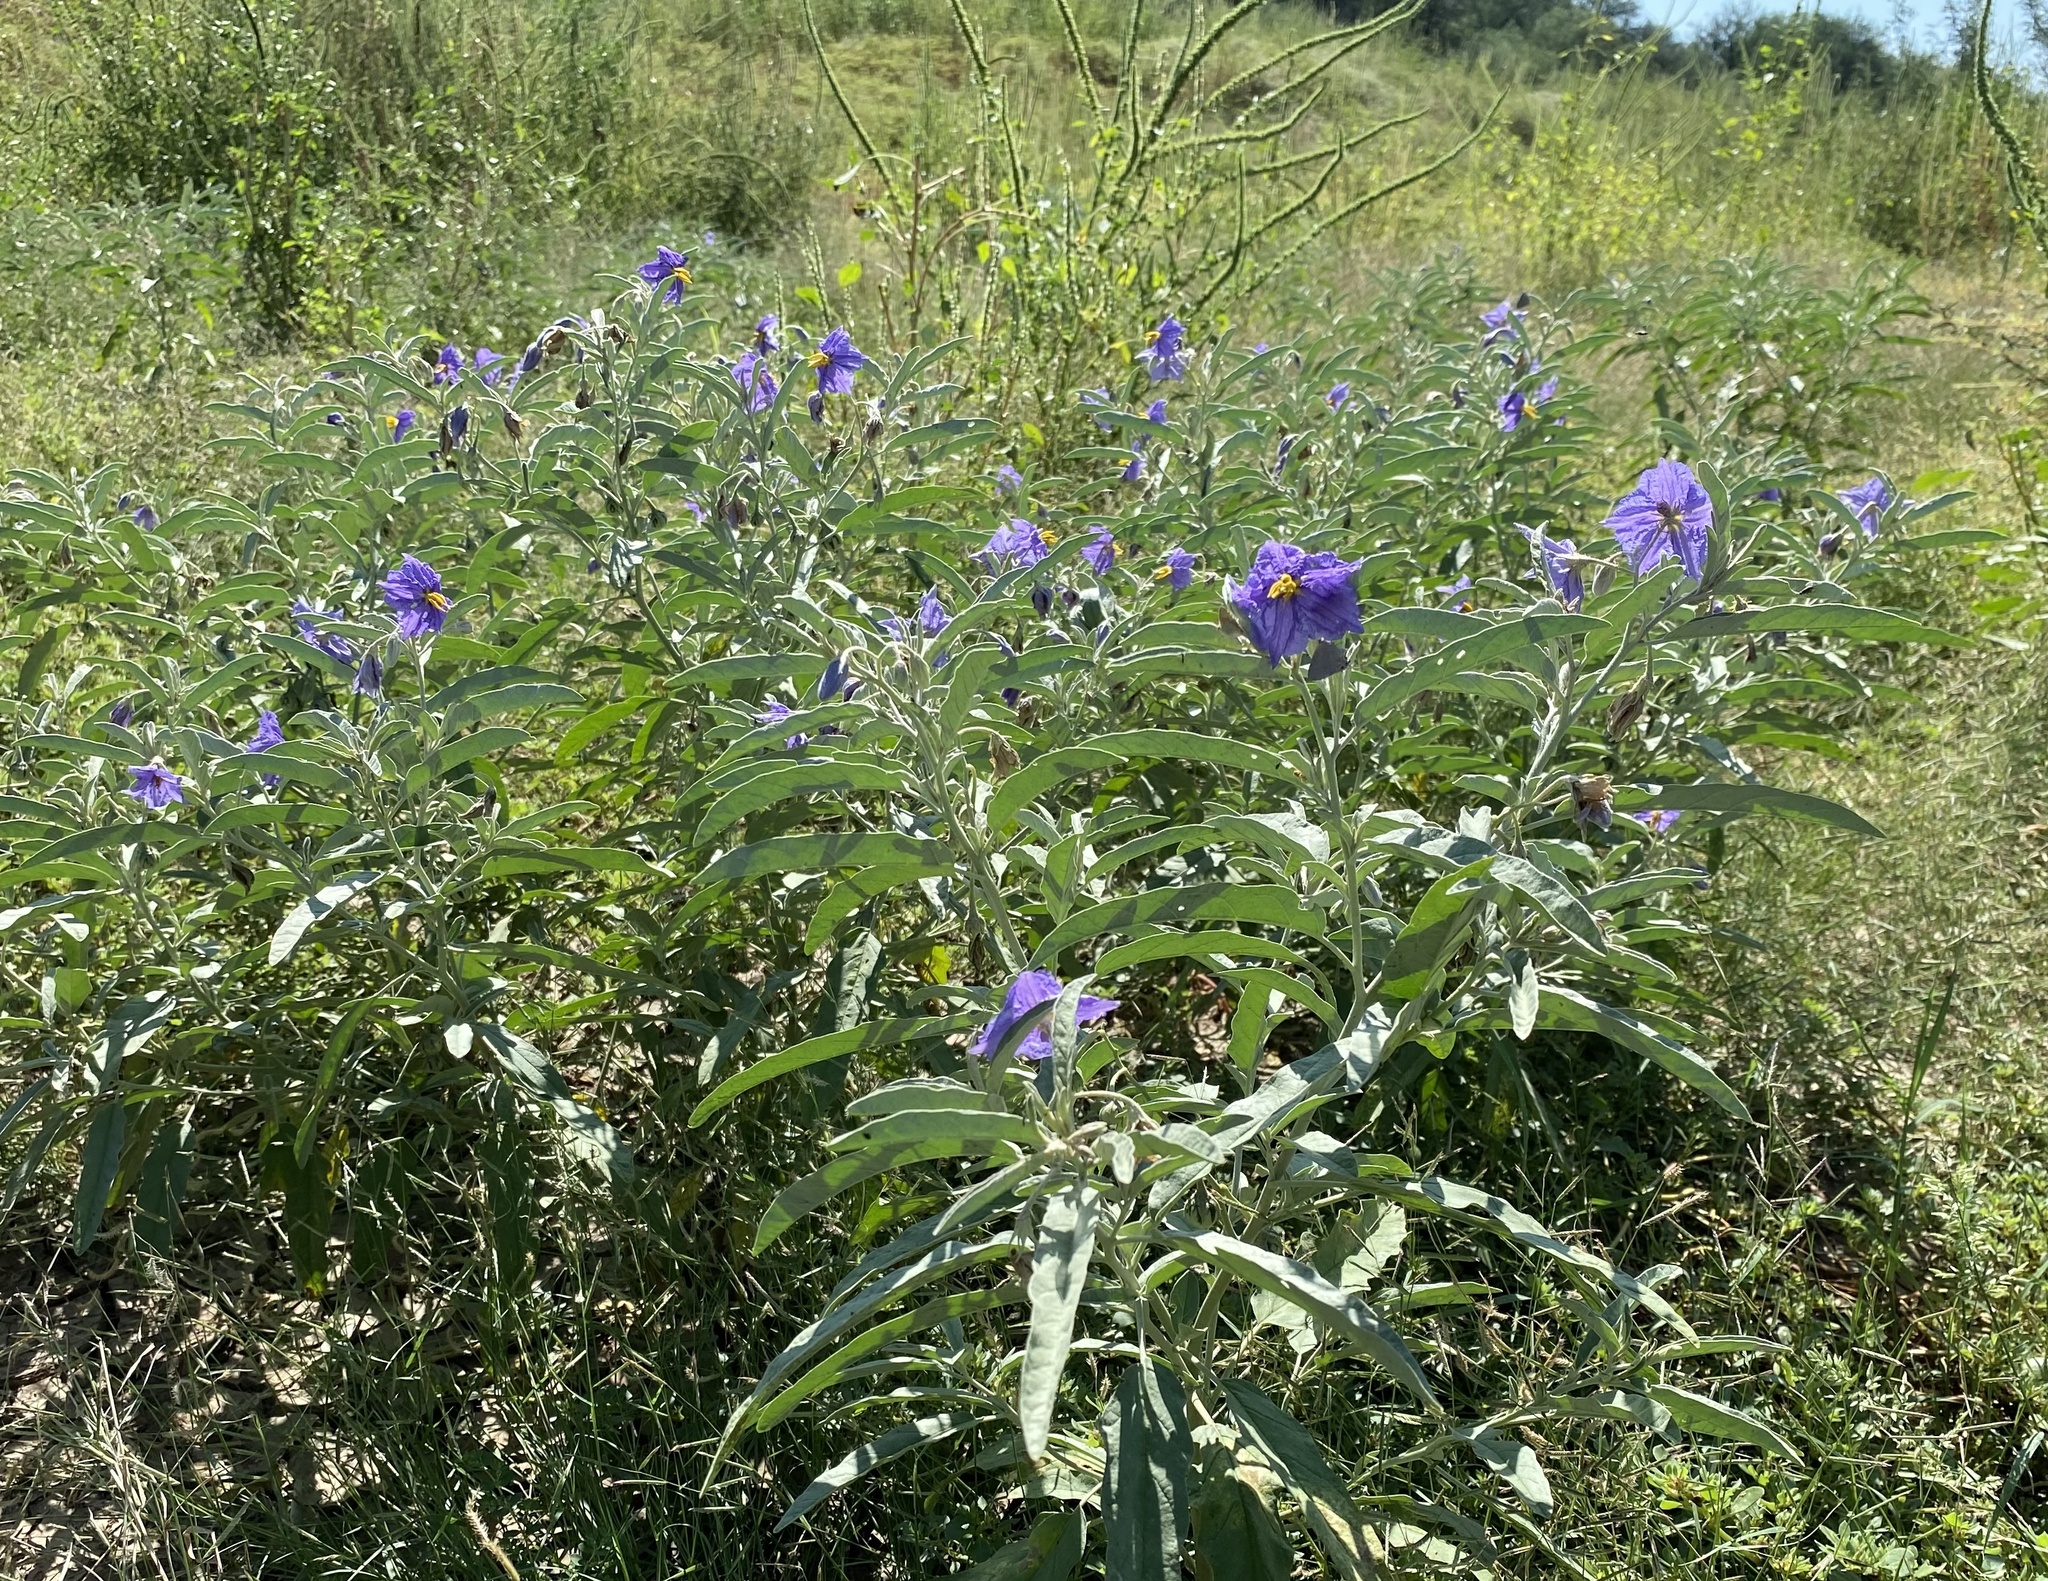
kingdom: Plantae
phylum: Tracheophyta
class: Magnoliopsida
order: Solanales
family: Solanaceae
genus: Solanum
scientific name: Solanum elaeagnifolium
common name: Silverleaf nightshade
